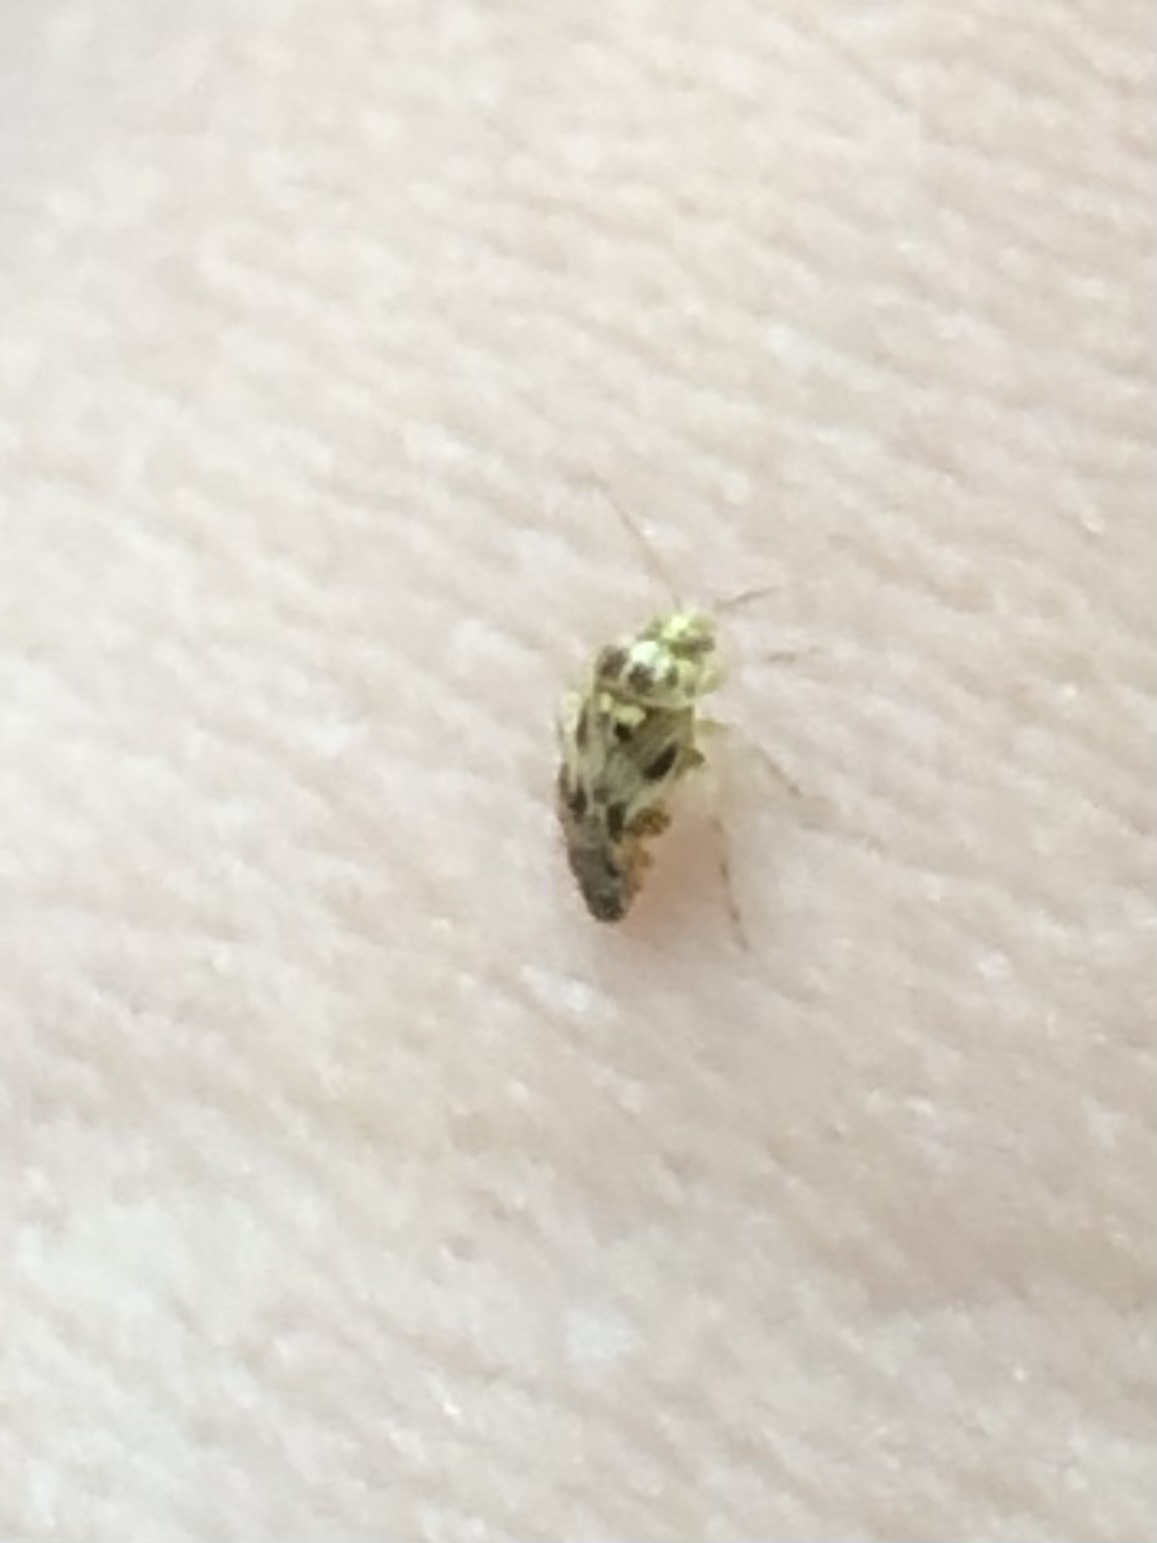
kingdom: Animalia
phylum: Arthropoda
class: Insecta
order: Hemiptera
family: Miridae
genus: Tropidosteptes
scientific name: Tropidosteptes quercicola
